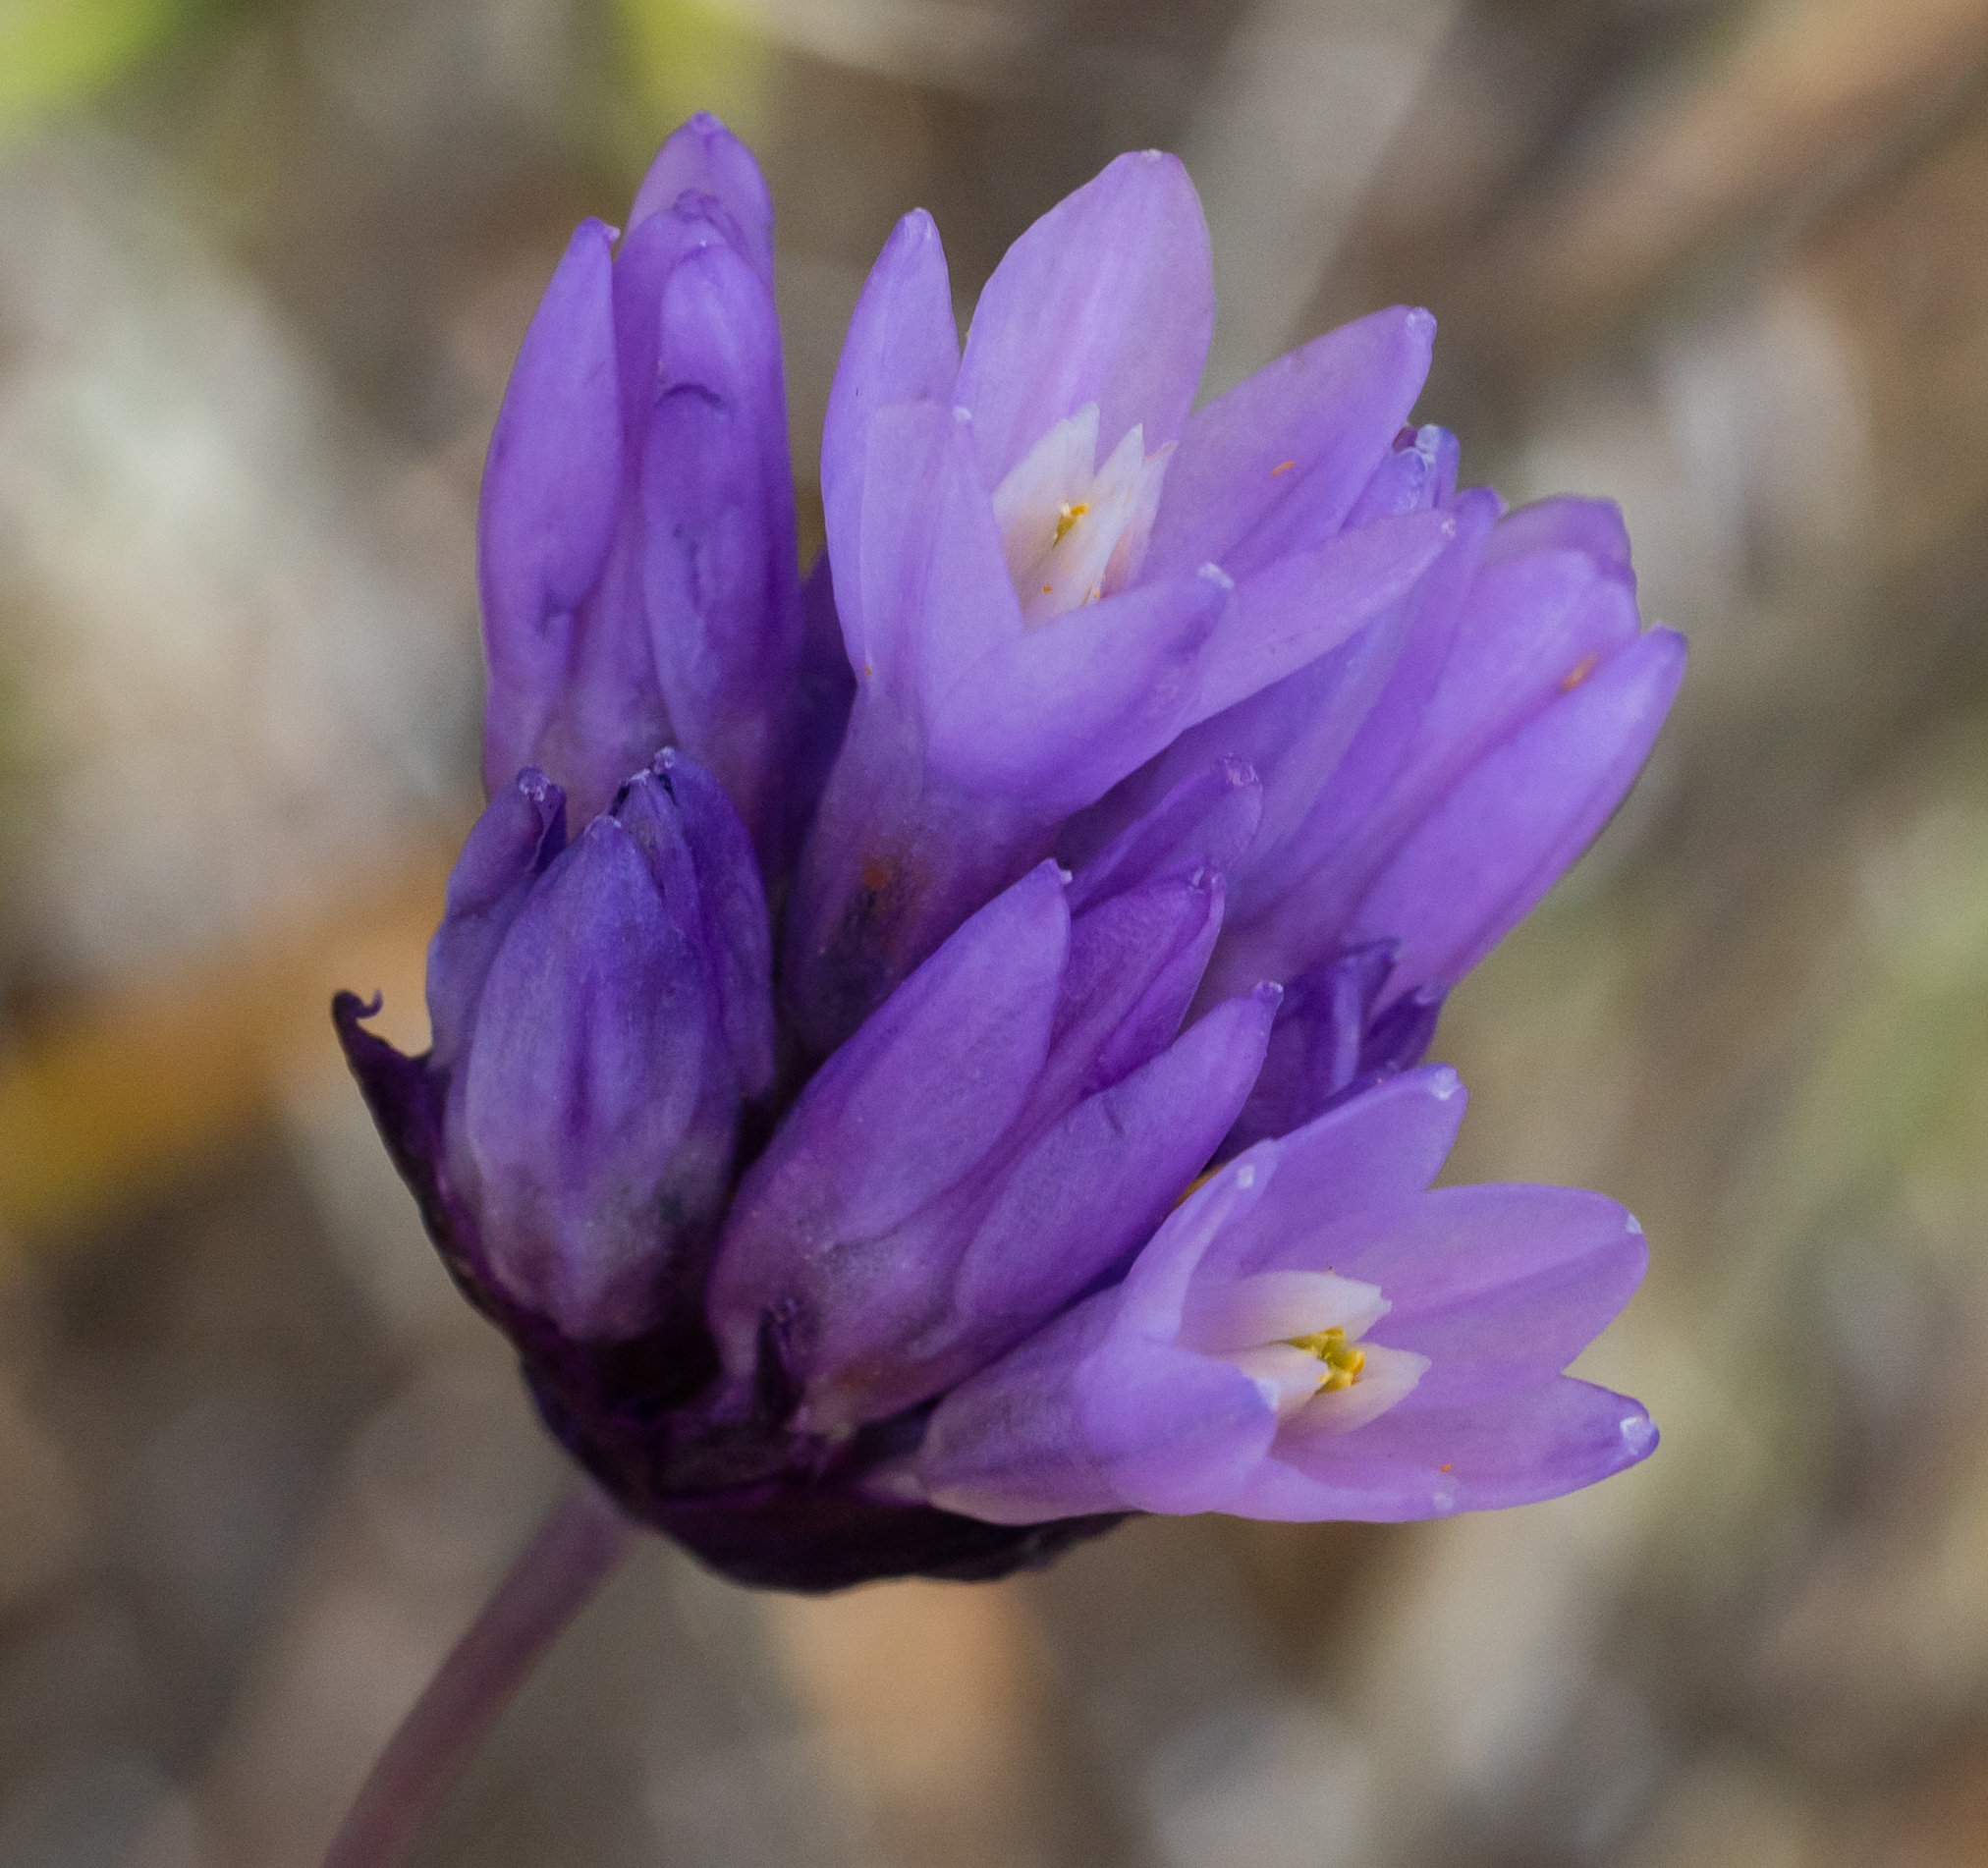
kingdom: Plantae
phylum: Tracheophyta
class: Liliopsida
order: Asparagales
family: Asparagaceae
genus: Dipterostemon
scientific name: Dipterostemon capitatus
